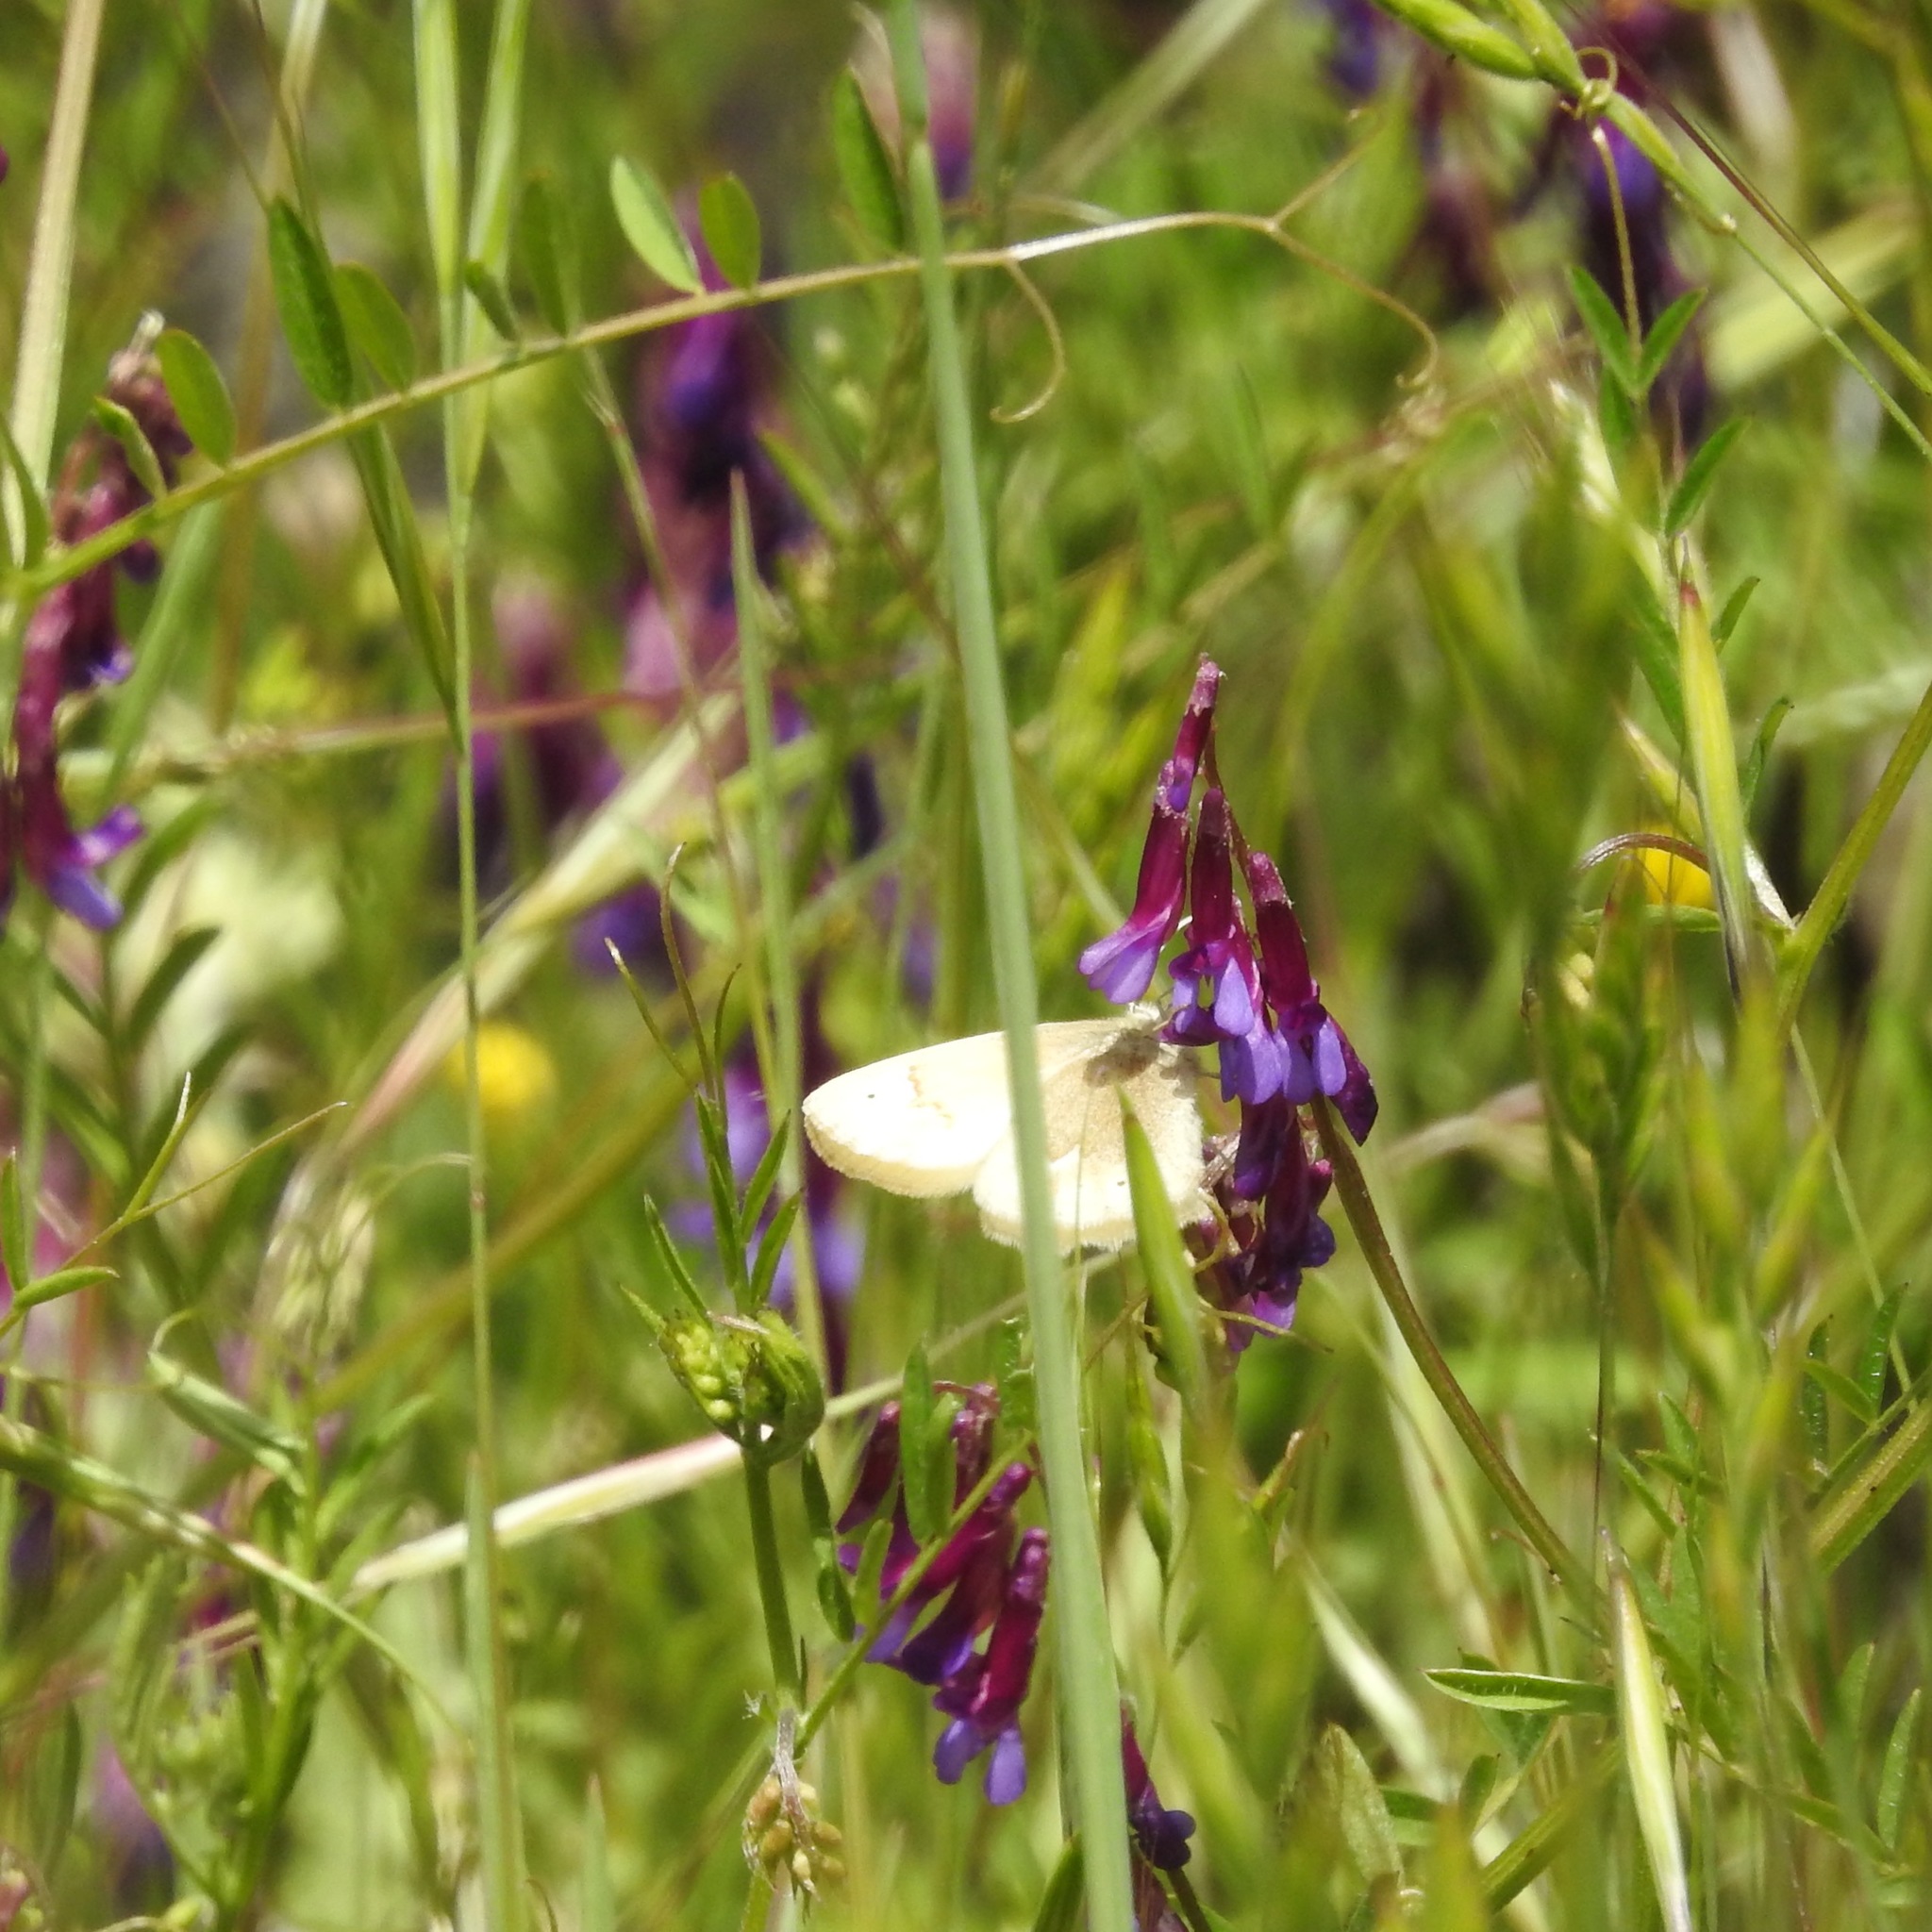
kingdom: Animalia
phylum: Arthropoda
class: Insecta
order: Lepidoptera
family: Nymphalidae
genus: Coenonympha
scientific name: Coenonympha california
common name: Common ringlet
